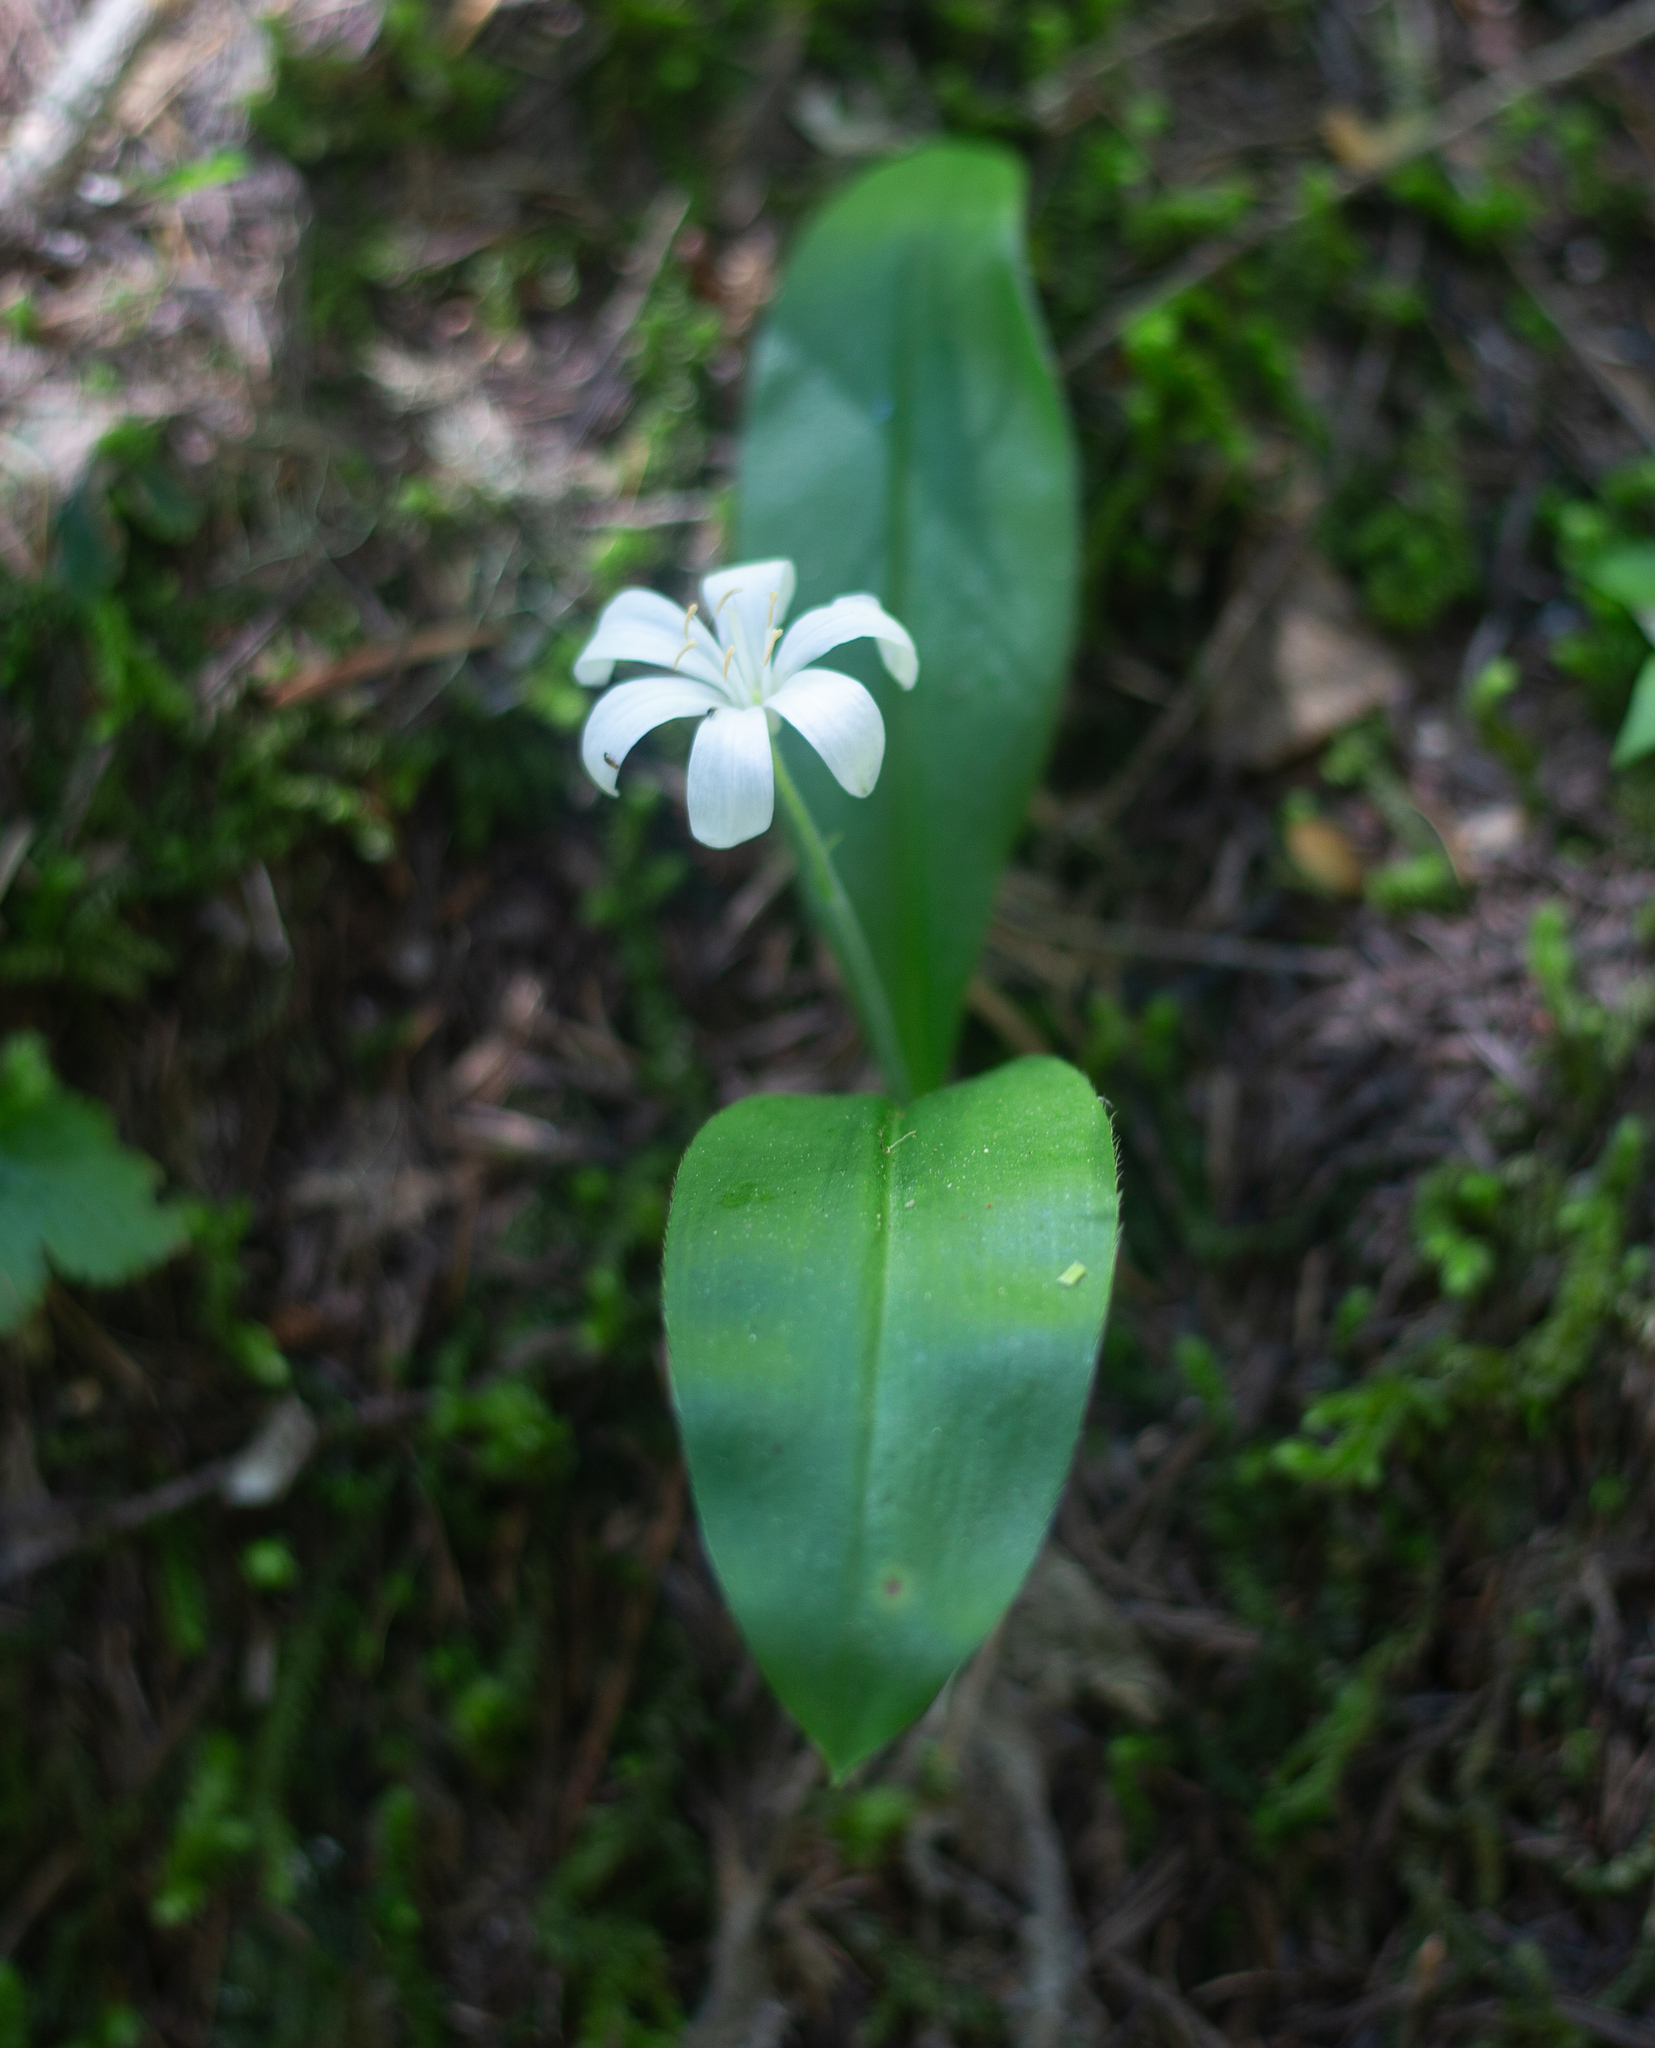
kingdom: Plantae
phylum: Tracheophyta
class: Liliopsida
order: Liliales
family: Liliaceae
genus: Clintonia
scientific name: Clintonia uniflora
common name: Queen's cup
